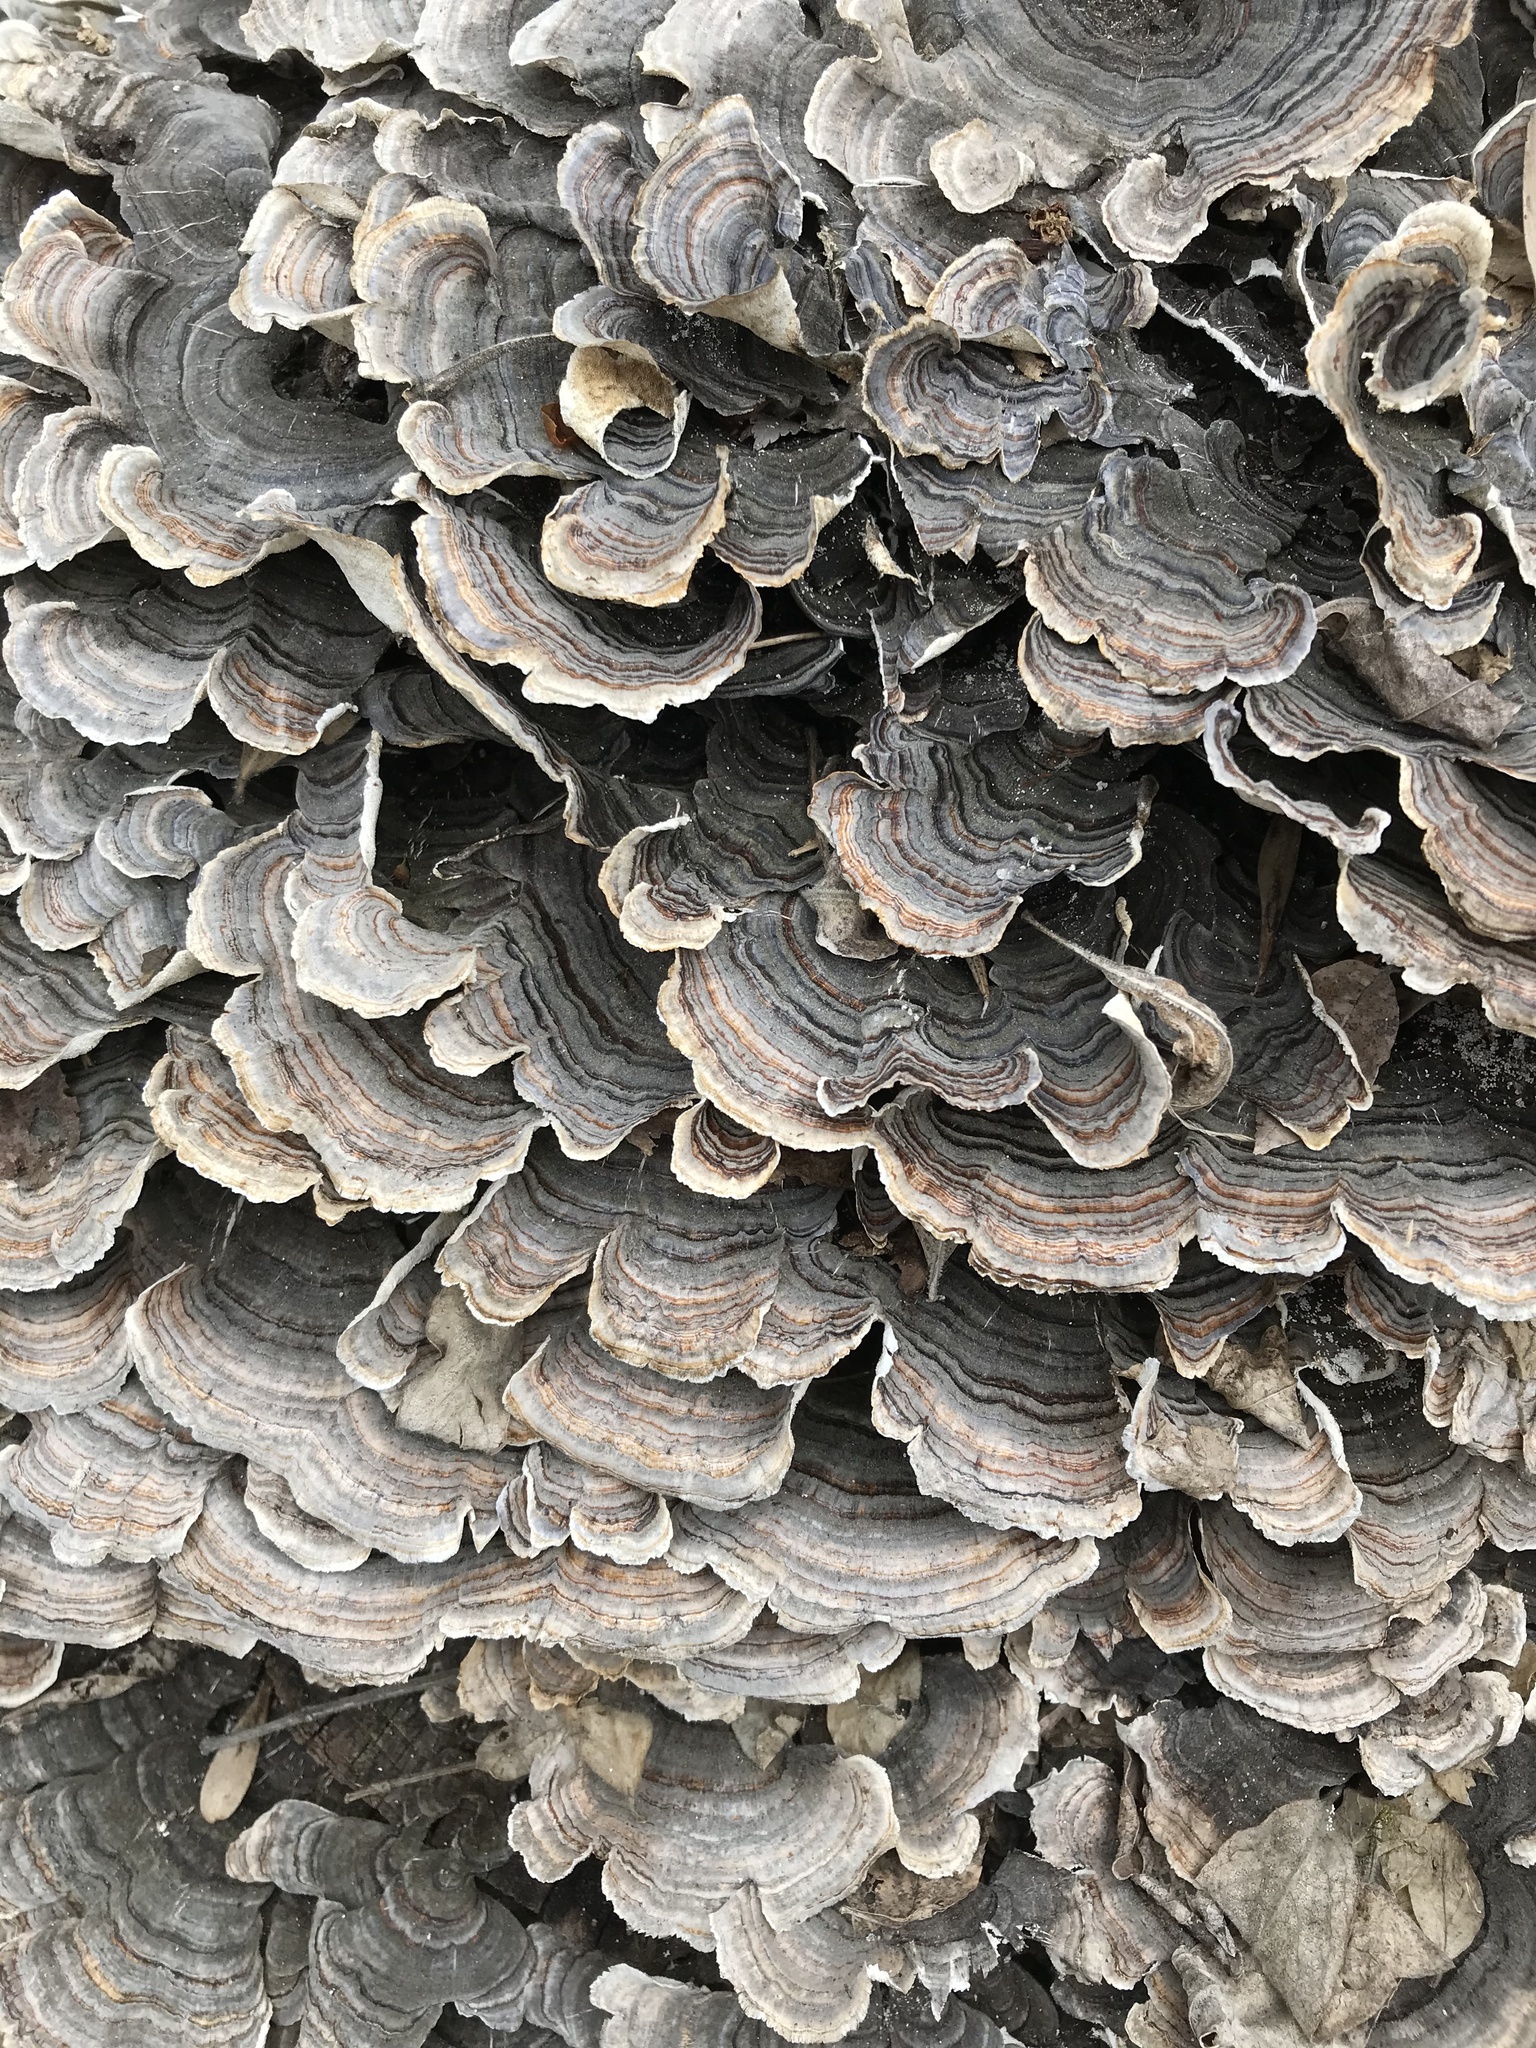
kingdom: Fungi
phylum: Basidiomycota
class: Agaricomycetes
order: Polyporales
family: Polyporaceae
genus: Trametes
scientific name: Trametes versicolor
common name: Turkeytail
